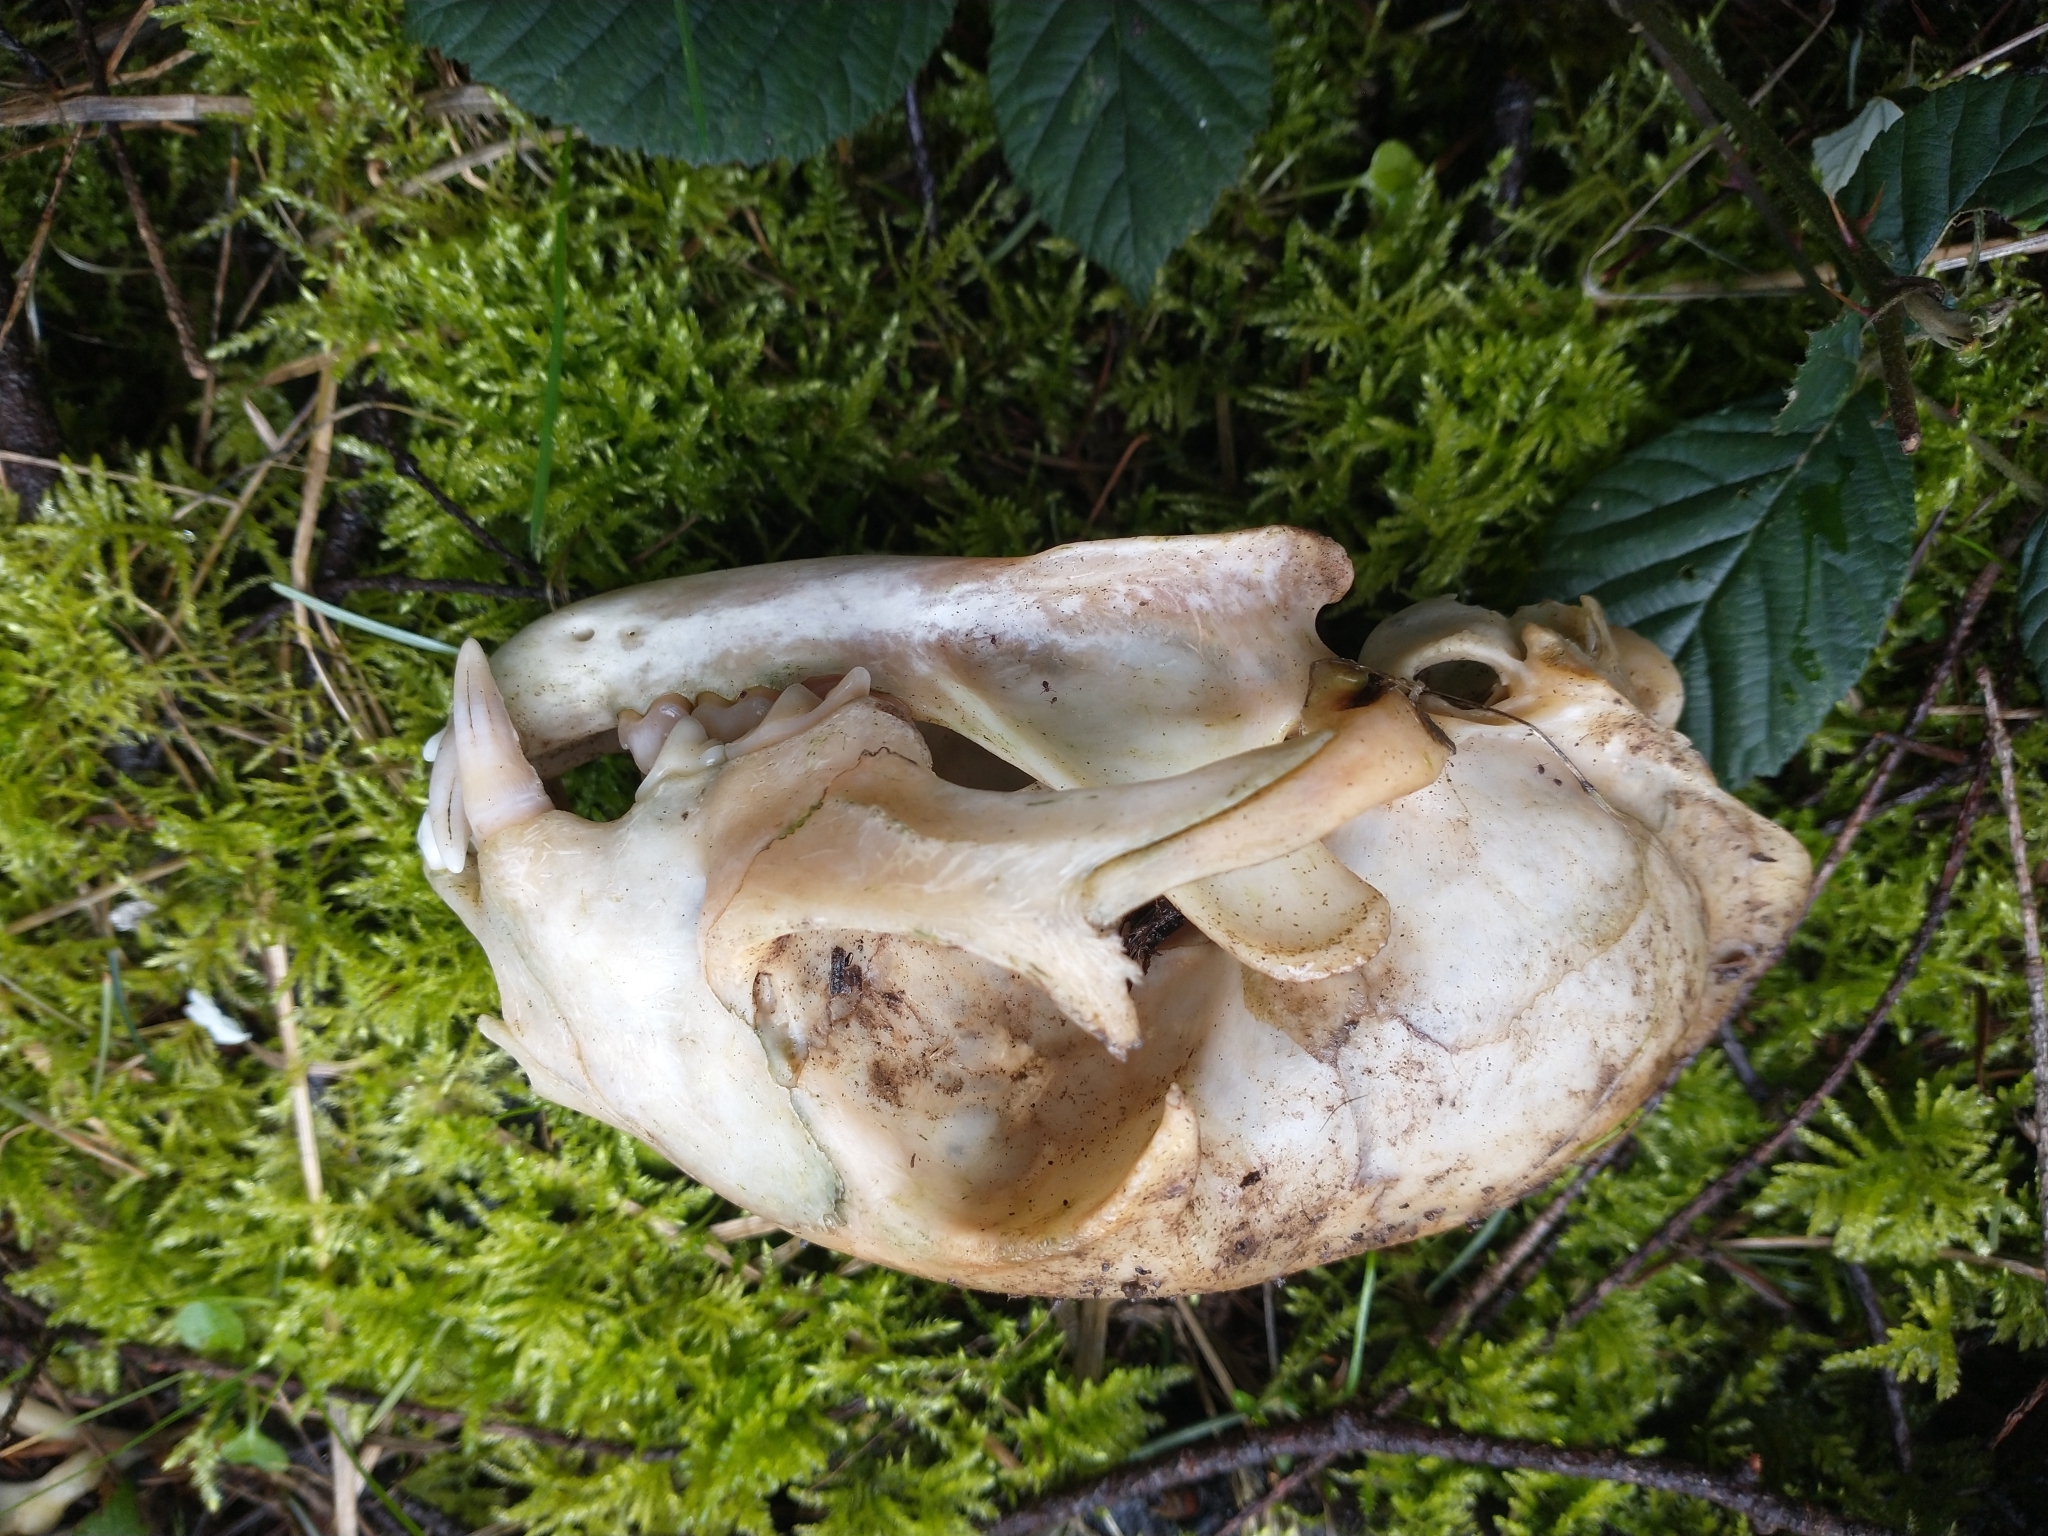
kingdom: Animalia
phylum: Chordata
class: Mammalia
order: Carnivora
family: Felidae
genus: Lynx
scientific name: Lynx rufus
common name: Bobcat
